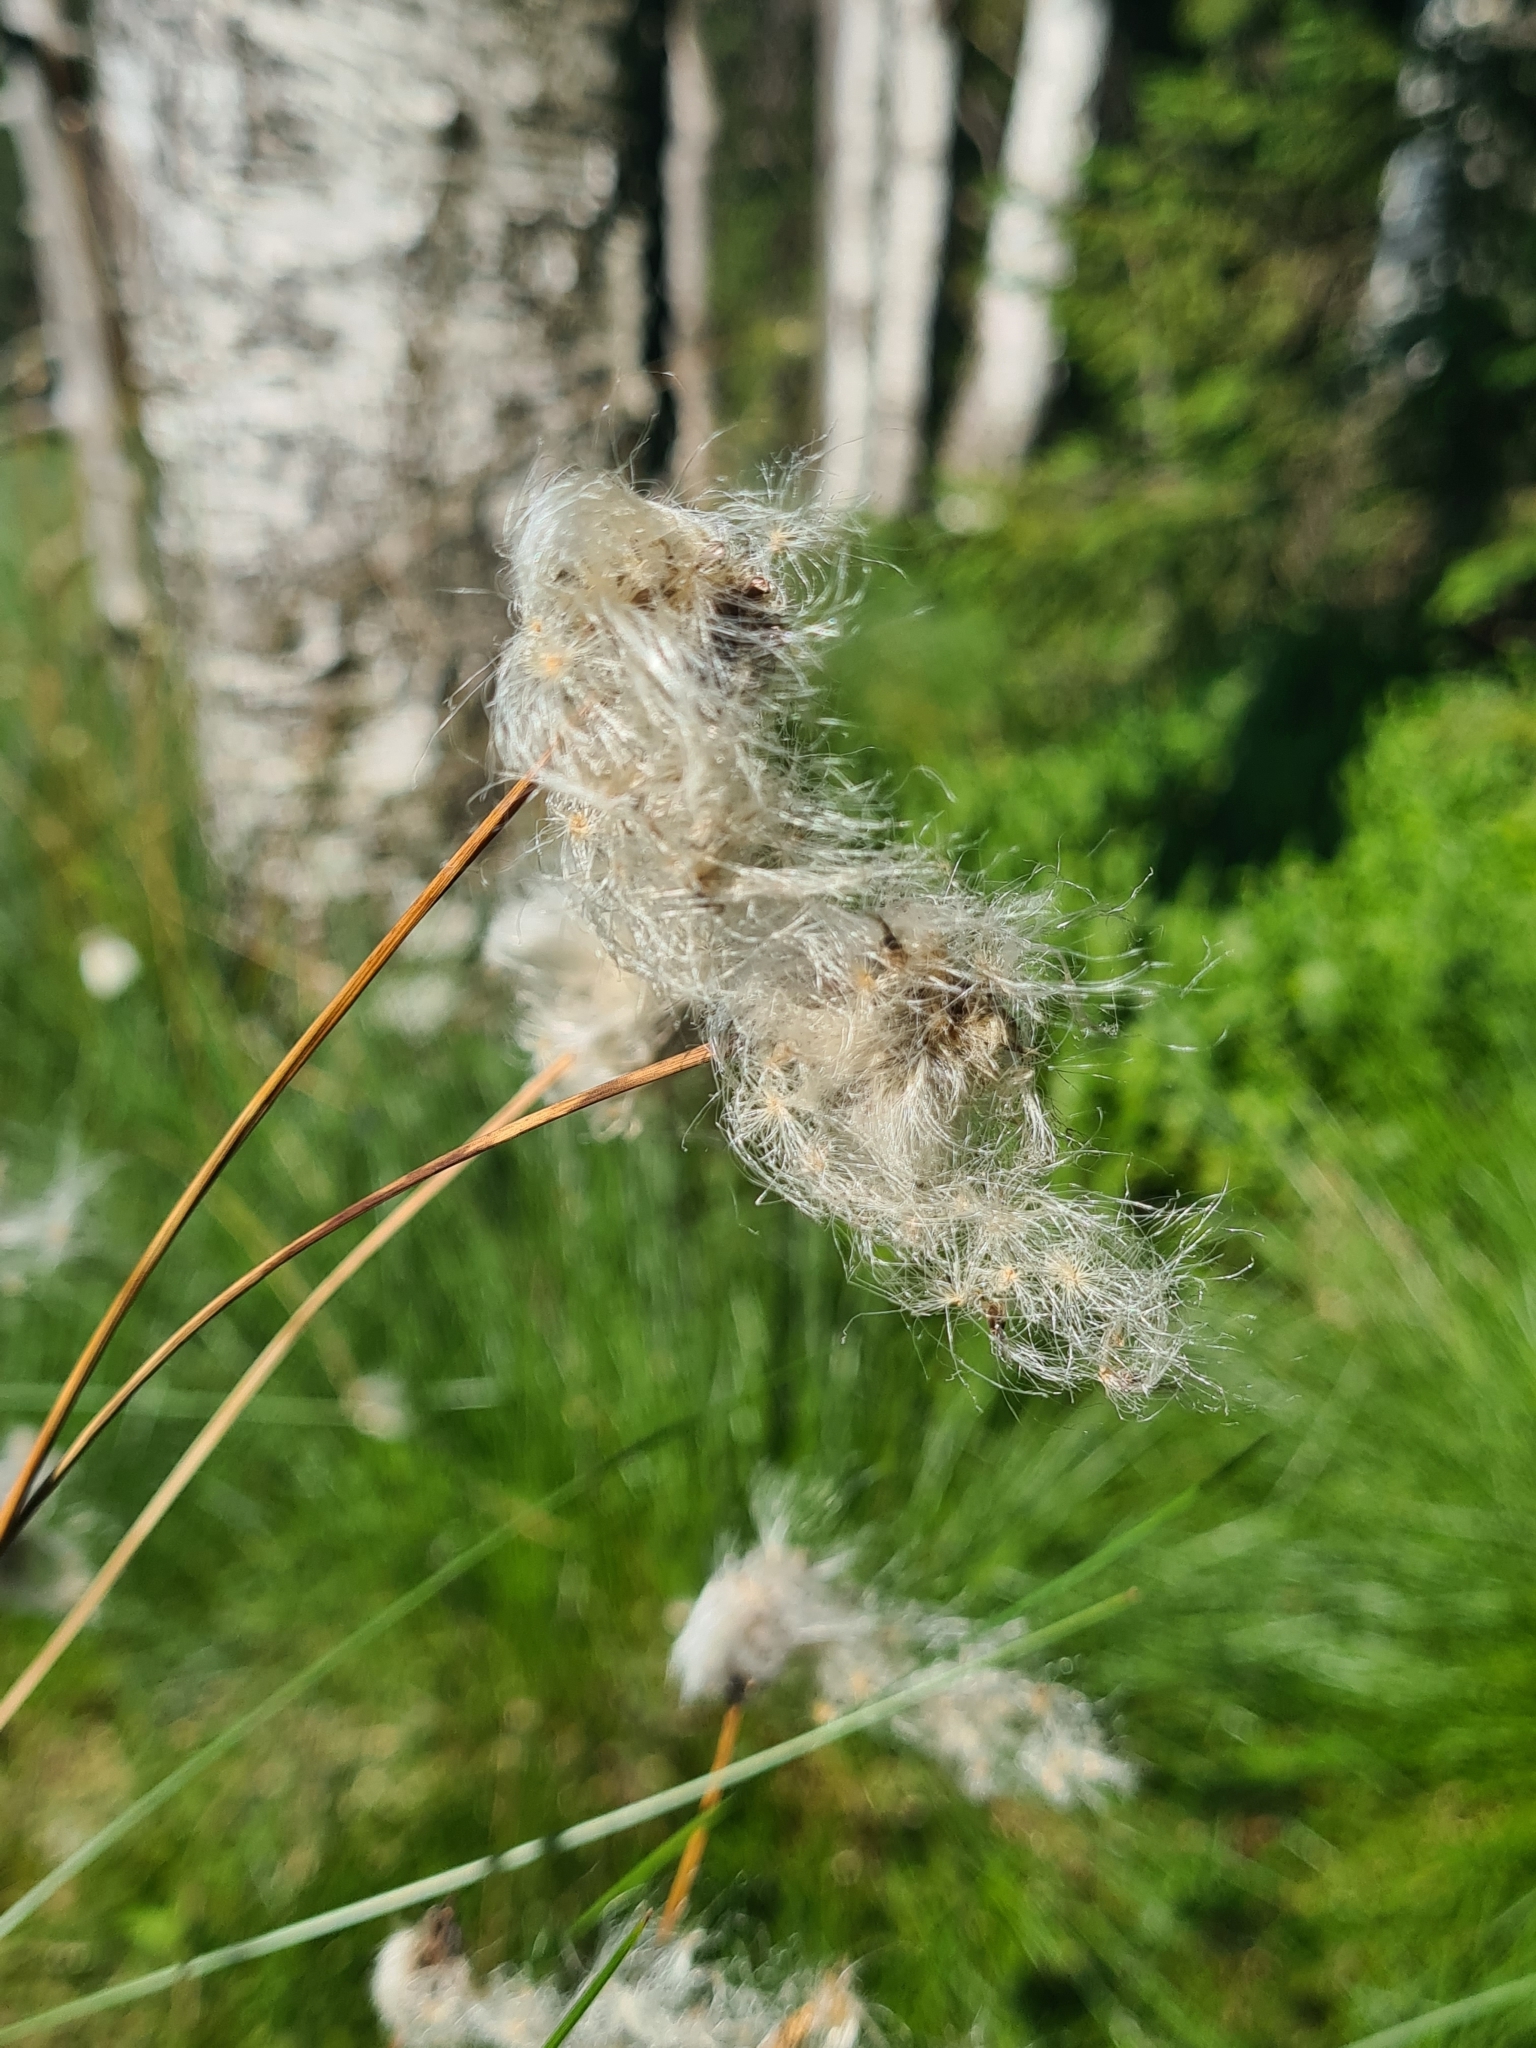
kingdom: Plantae
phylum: Tracheophyta
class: Liliopsida
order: Poales
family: Cyperaceae
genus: Eriophorum
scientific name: Eriophorum vaginatum
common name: Hare's-tail cottongrass
